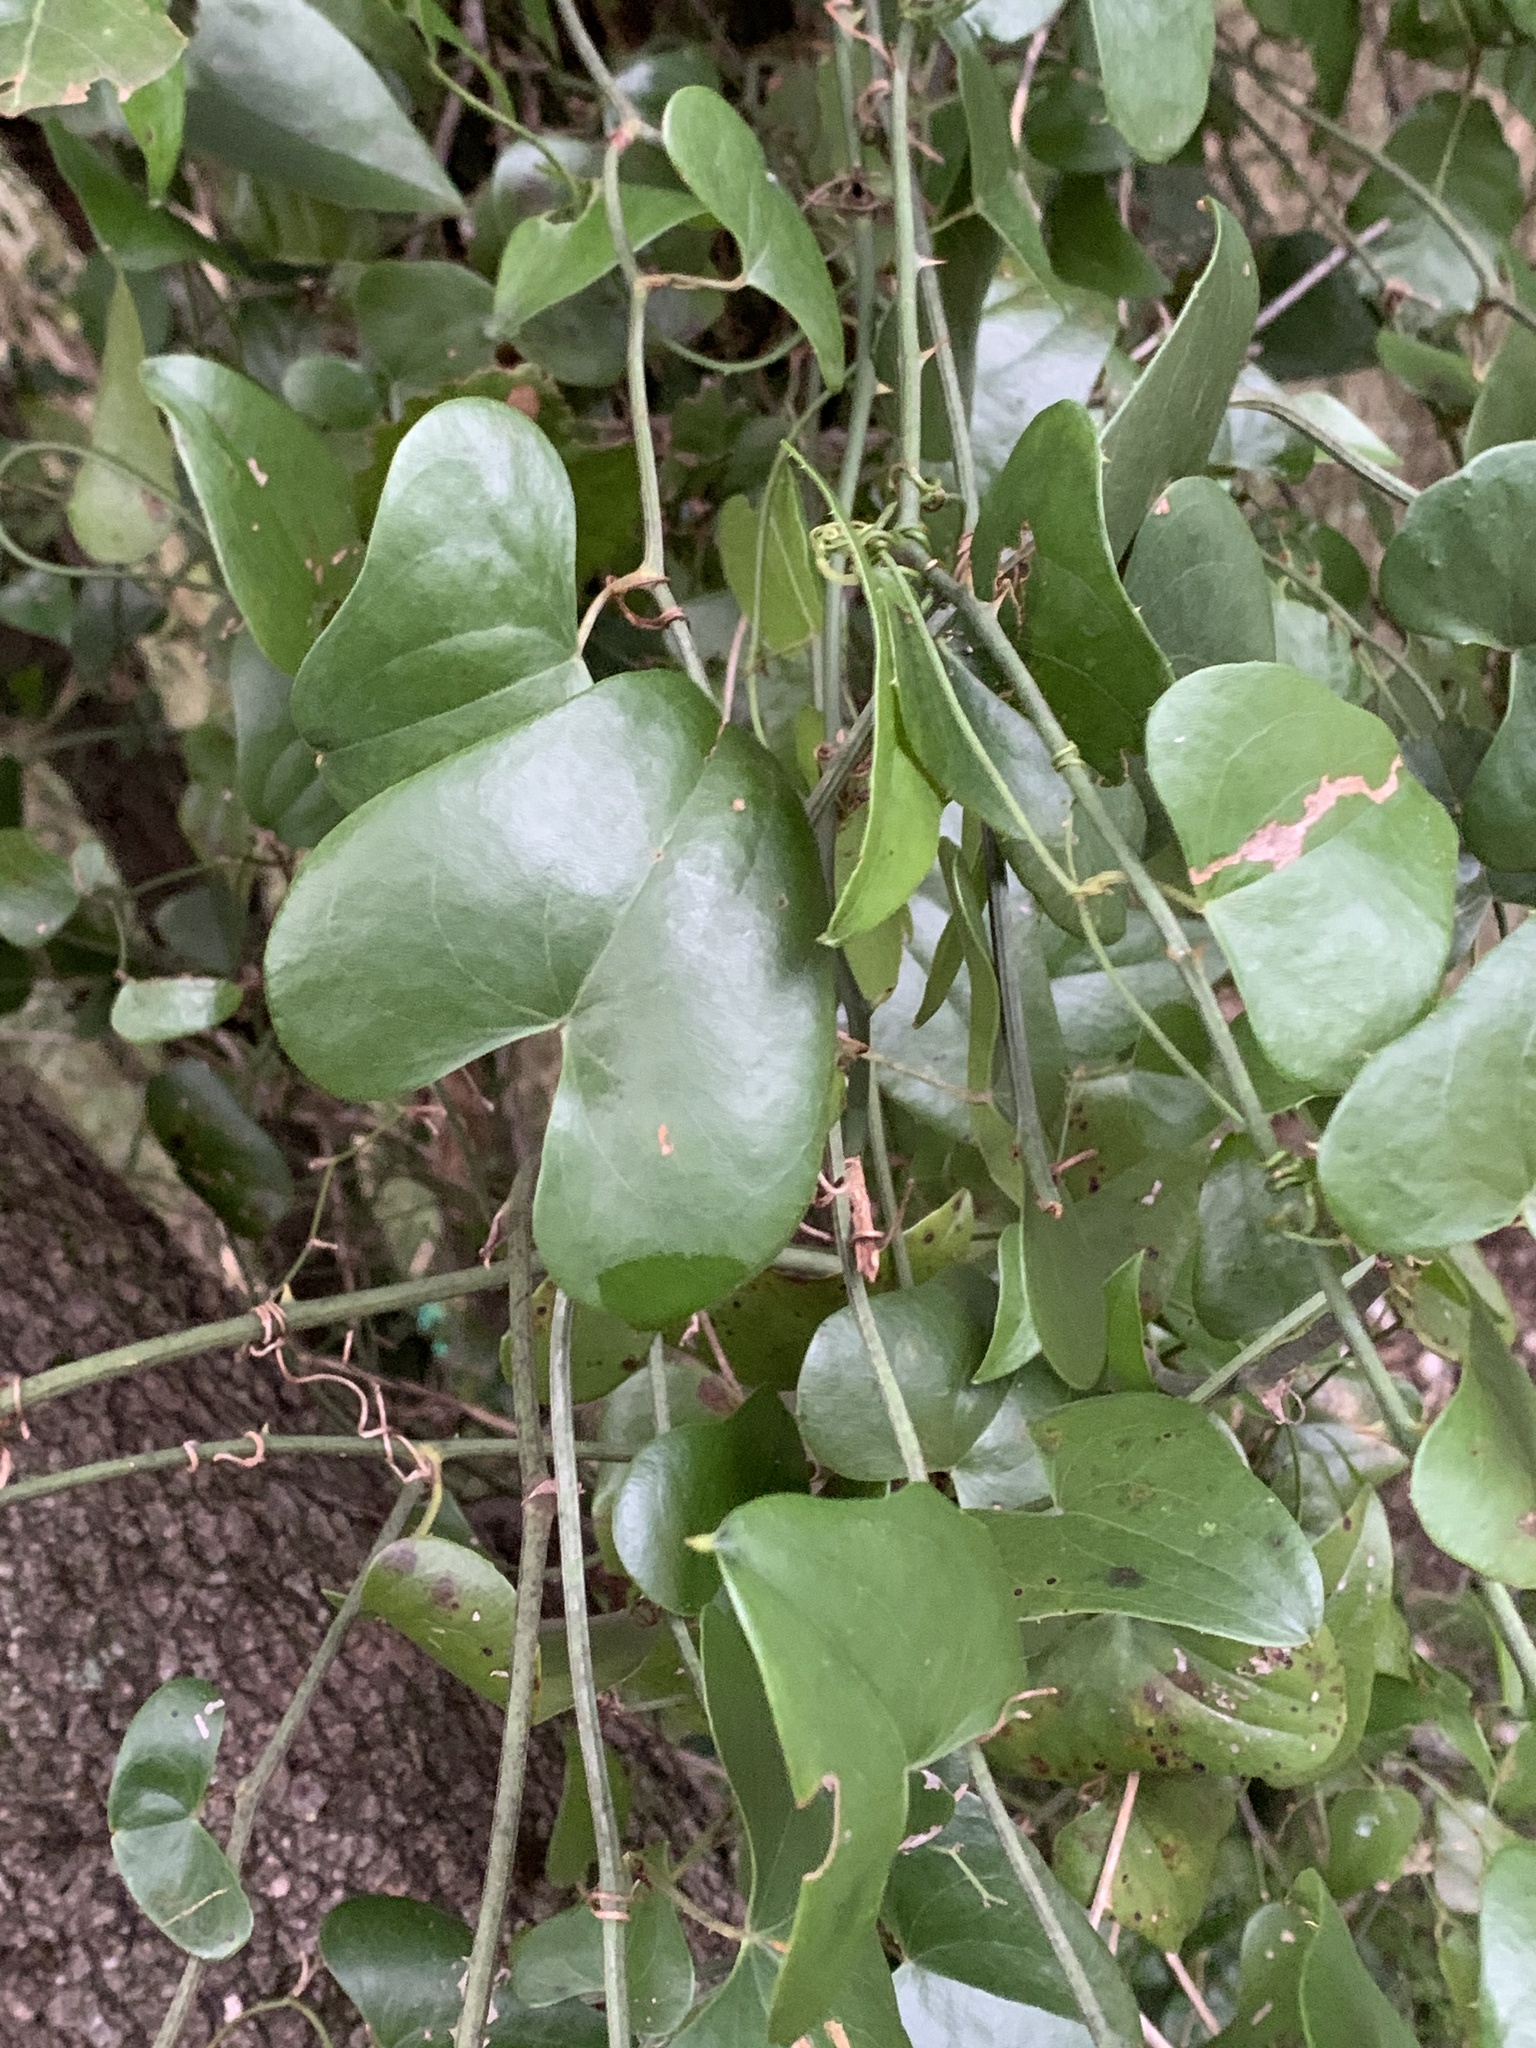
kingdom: Plantae
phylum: Tracheophyta
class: Liliopsida
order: Liliales
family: Smilacaceae
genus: Smilax
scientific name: Smilax aspera
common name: Common smilax
